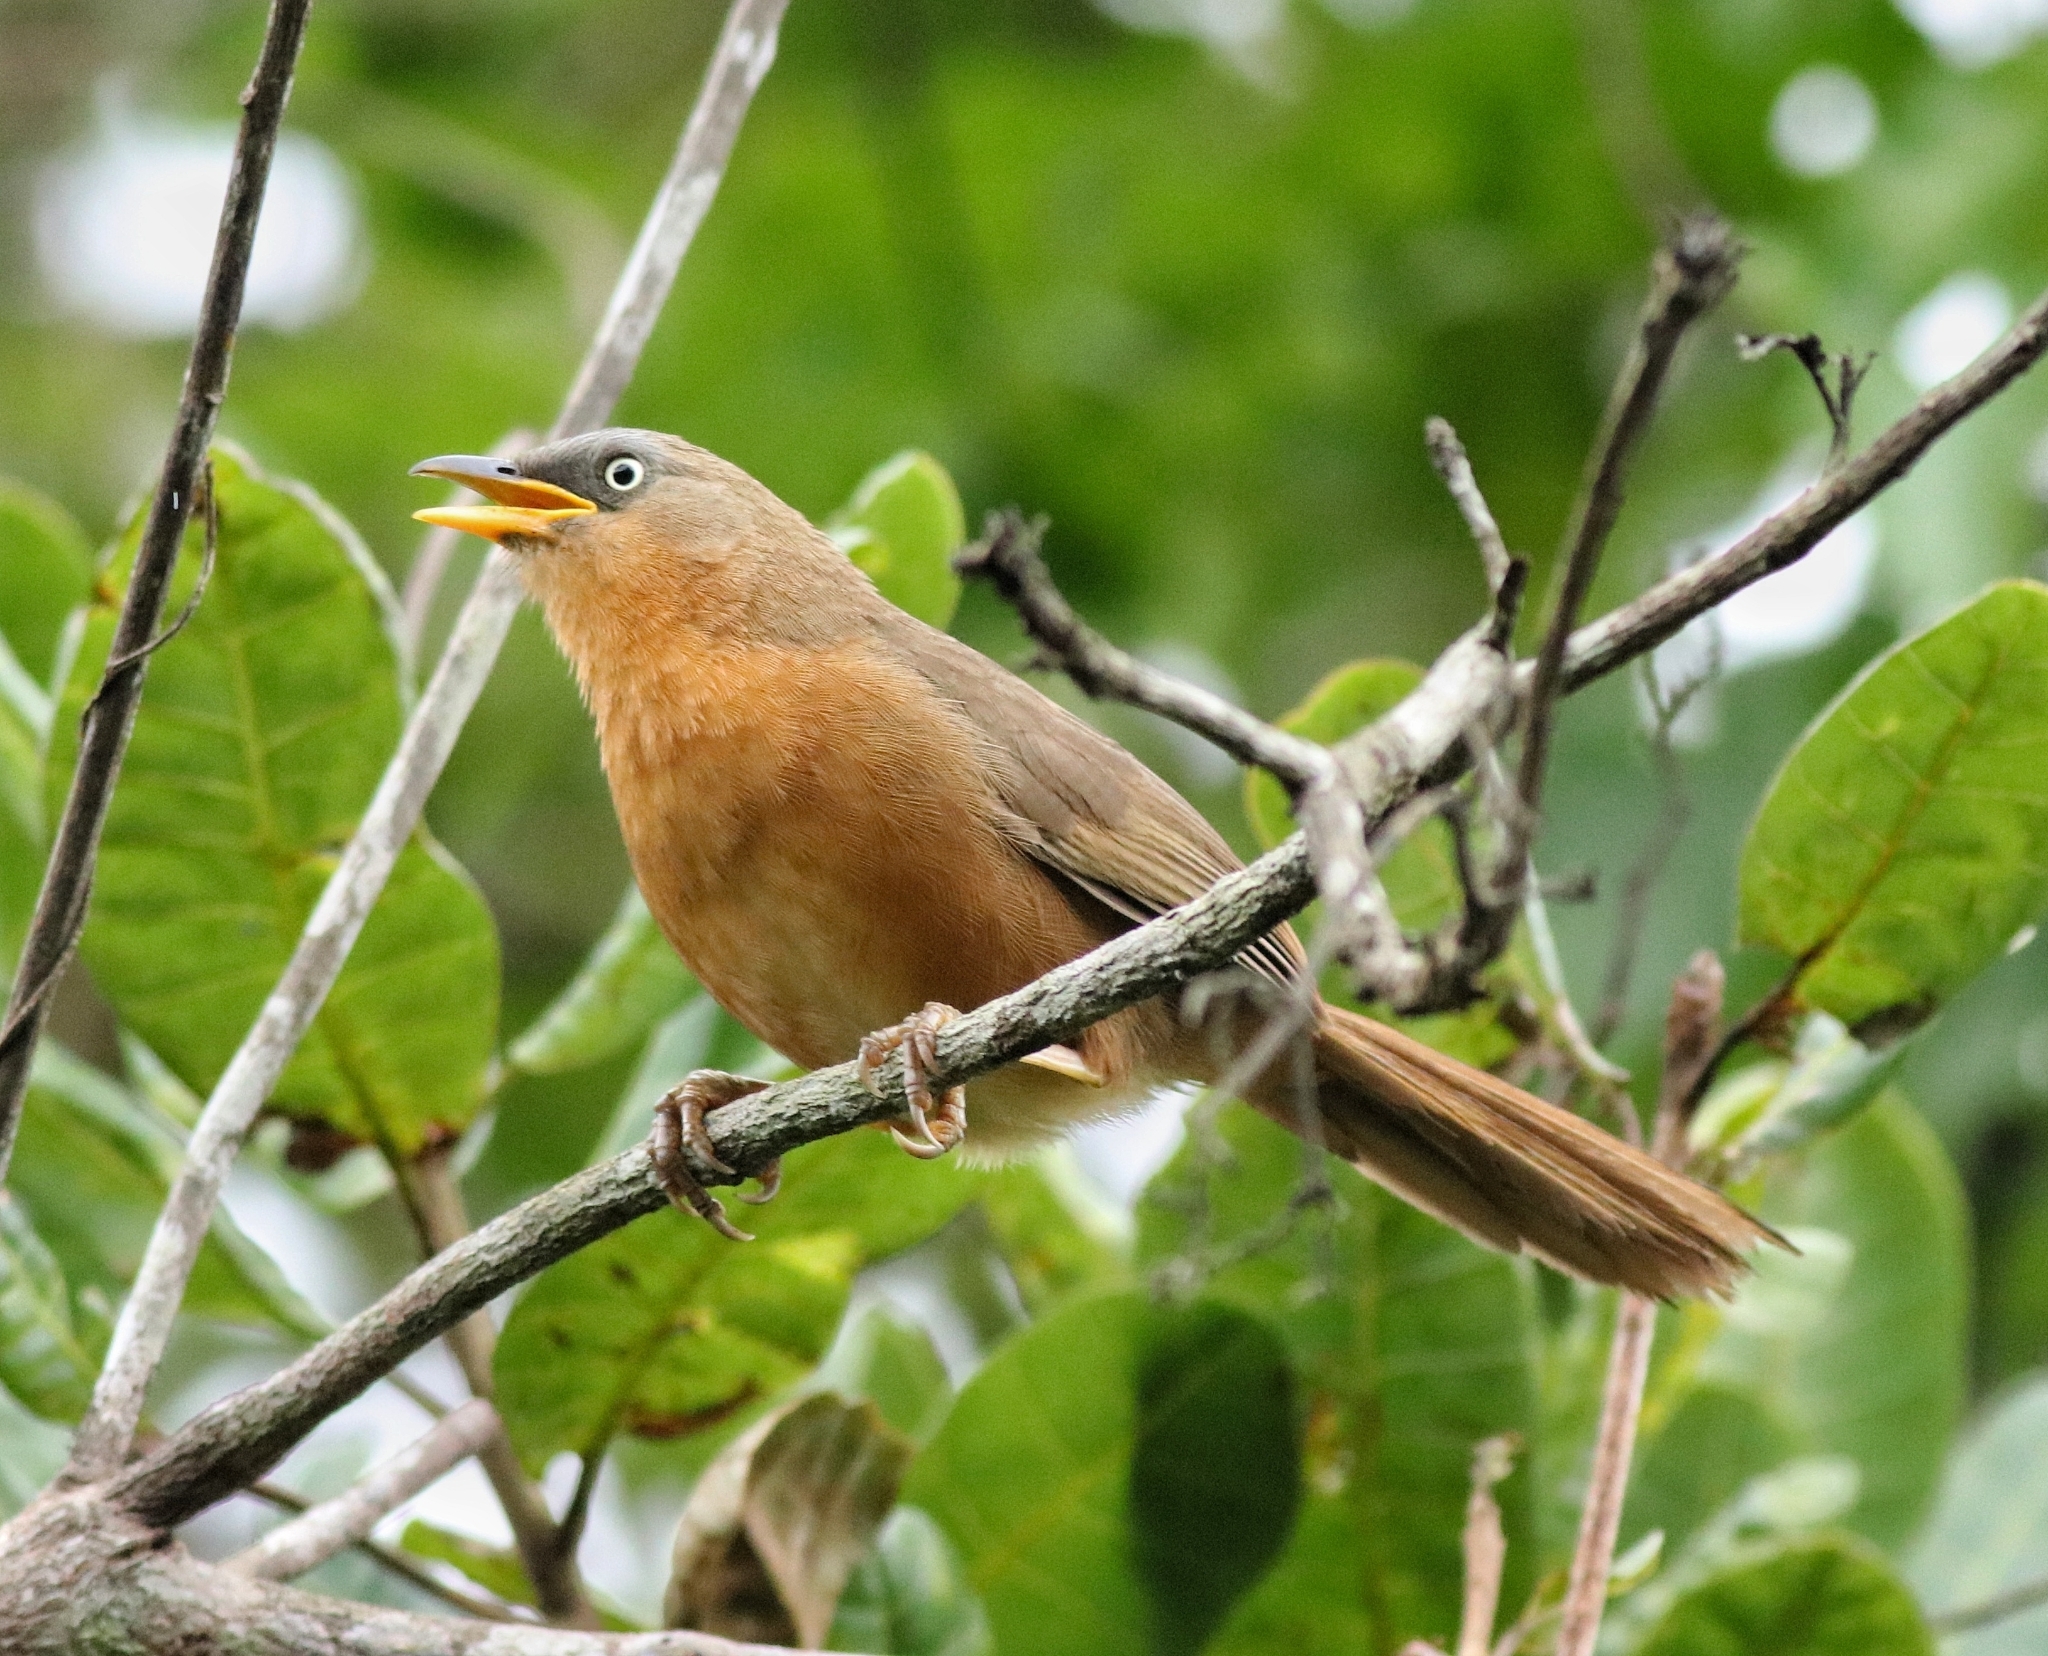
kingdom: Animalia
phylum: Chordata
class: Aves
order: Passeriformes
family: Leiothrichidae
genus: Turdoides
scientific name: Turdoides subrufa
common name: Rufous babbler
